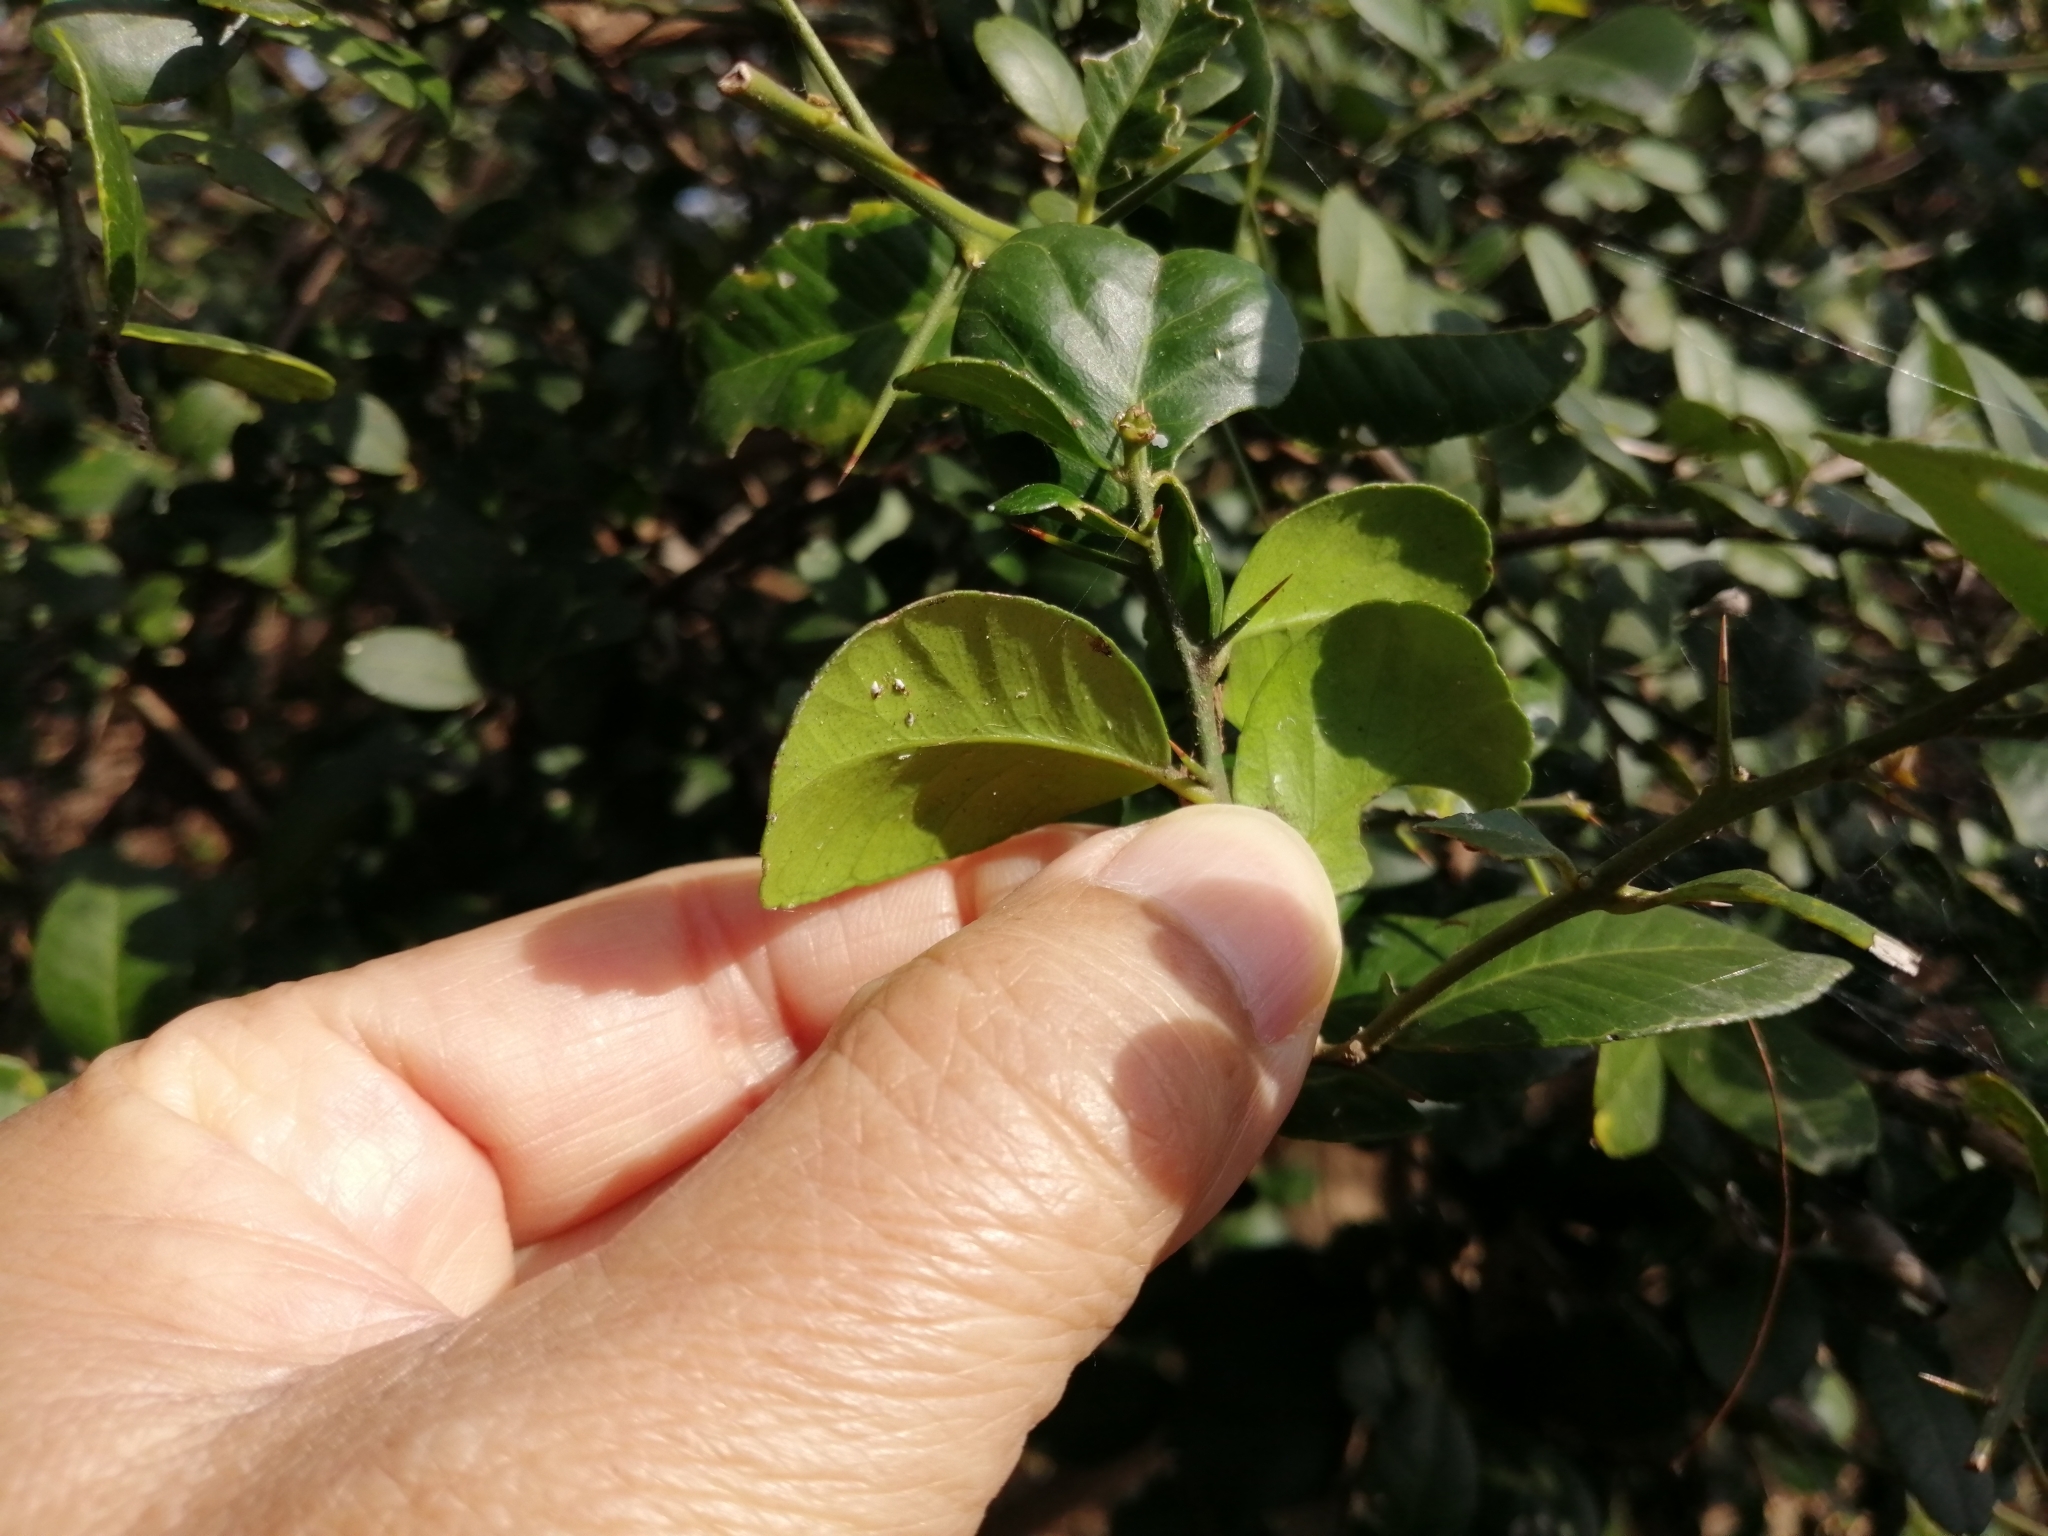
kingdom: Plantae
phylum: Tracheophyta
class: Magnoliopsida
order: Sapindales
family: Rutaceae
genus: Atalantia
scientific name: Atalantia buxifolia
